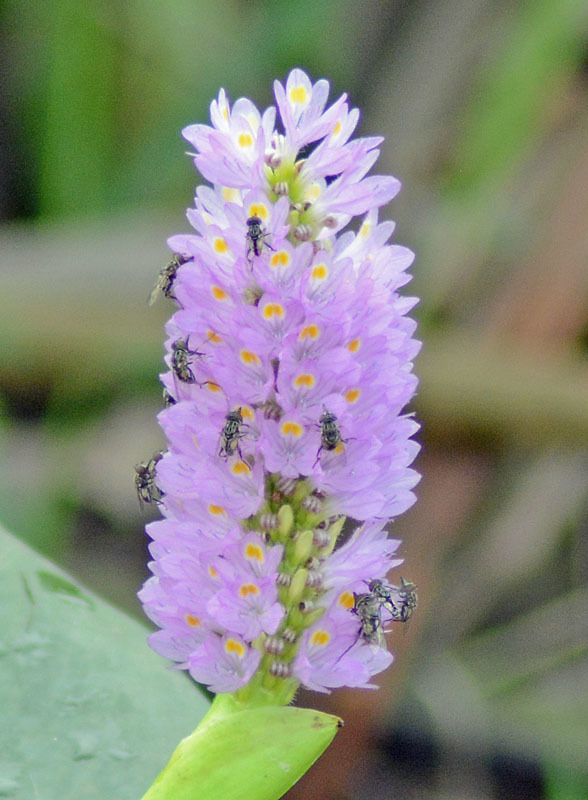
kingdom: Plantae
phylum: Tracheophyta
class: Liliopsida
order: Commelinales
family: Pontederiaceae
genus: Pontederia
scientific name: Pontederia sagittata
